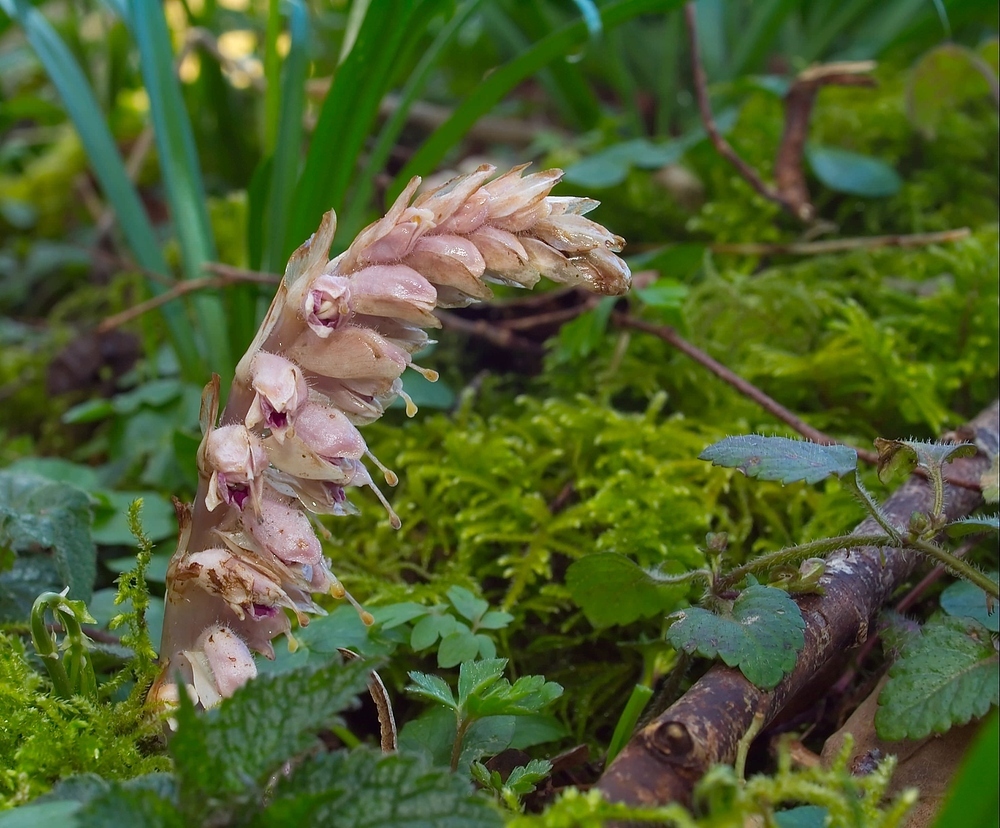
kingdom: Plantae
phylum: Tracheophyta
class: Magnoliopsida
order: Lamiales
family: Orobanchaceae
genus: Lathraea
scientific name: Lathraea squamaria
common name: Toothwort
